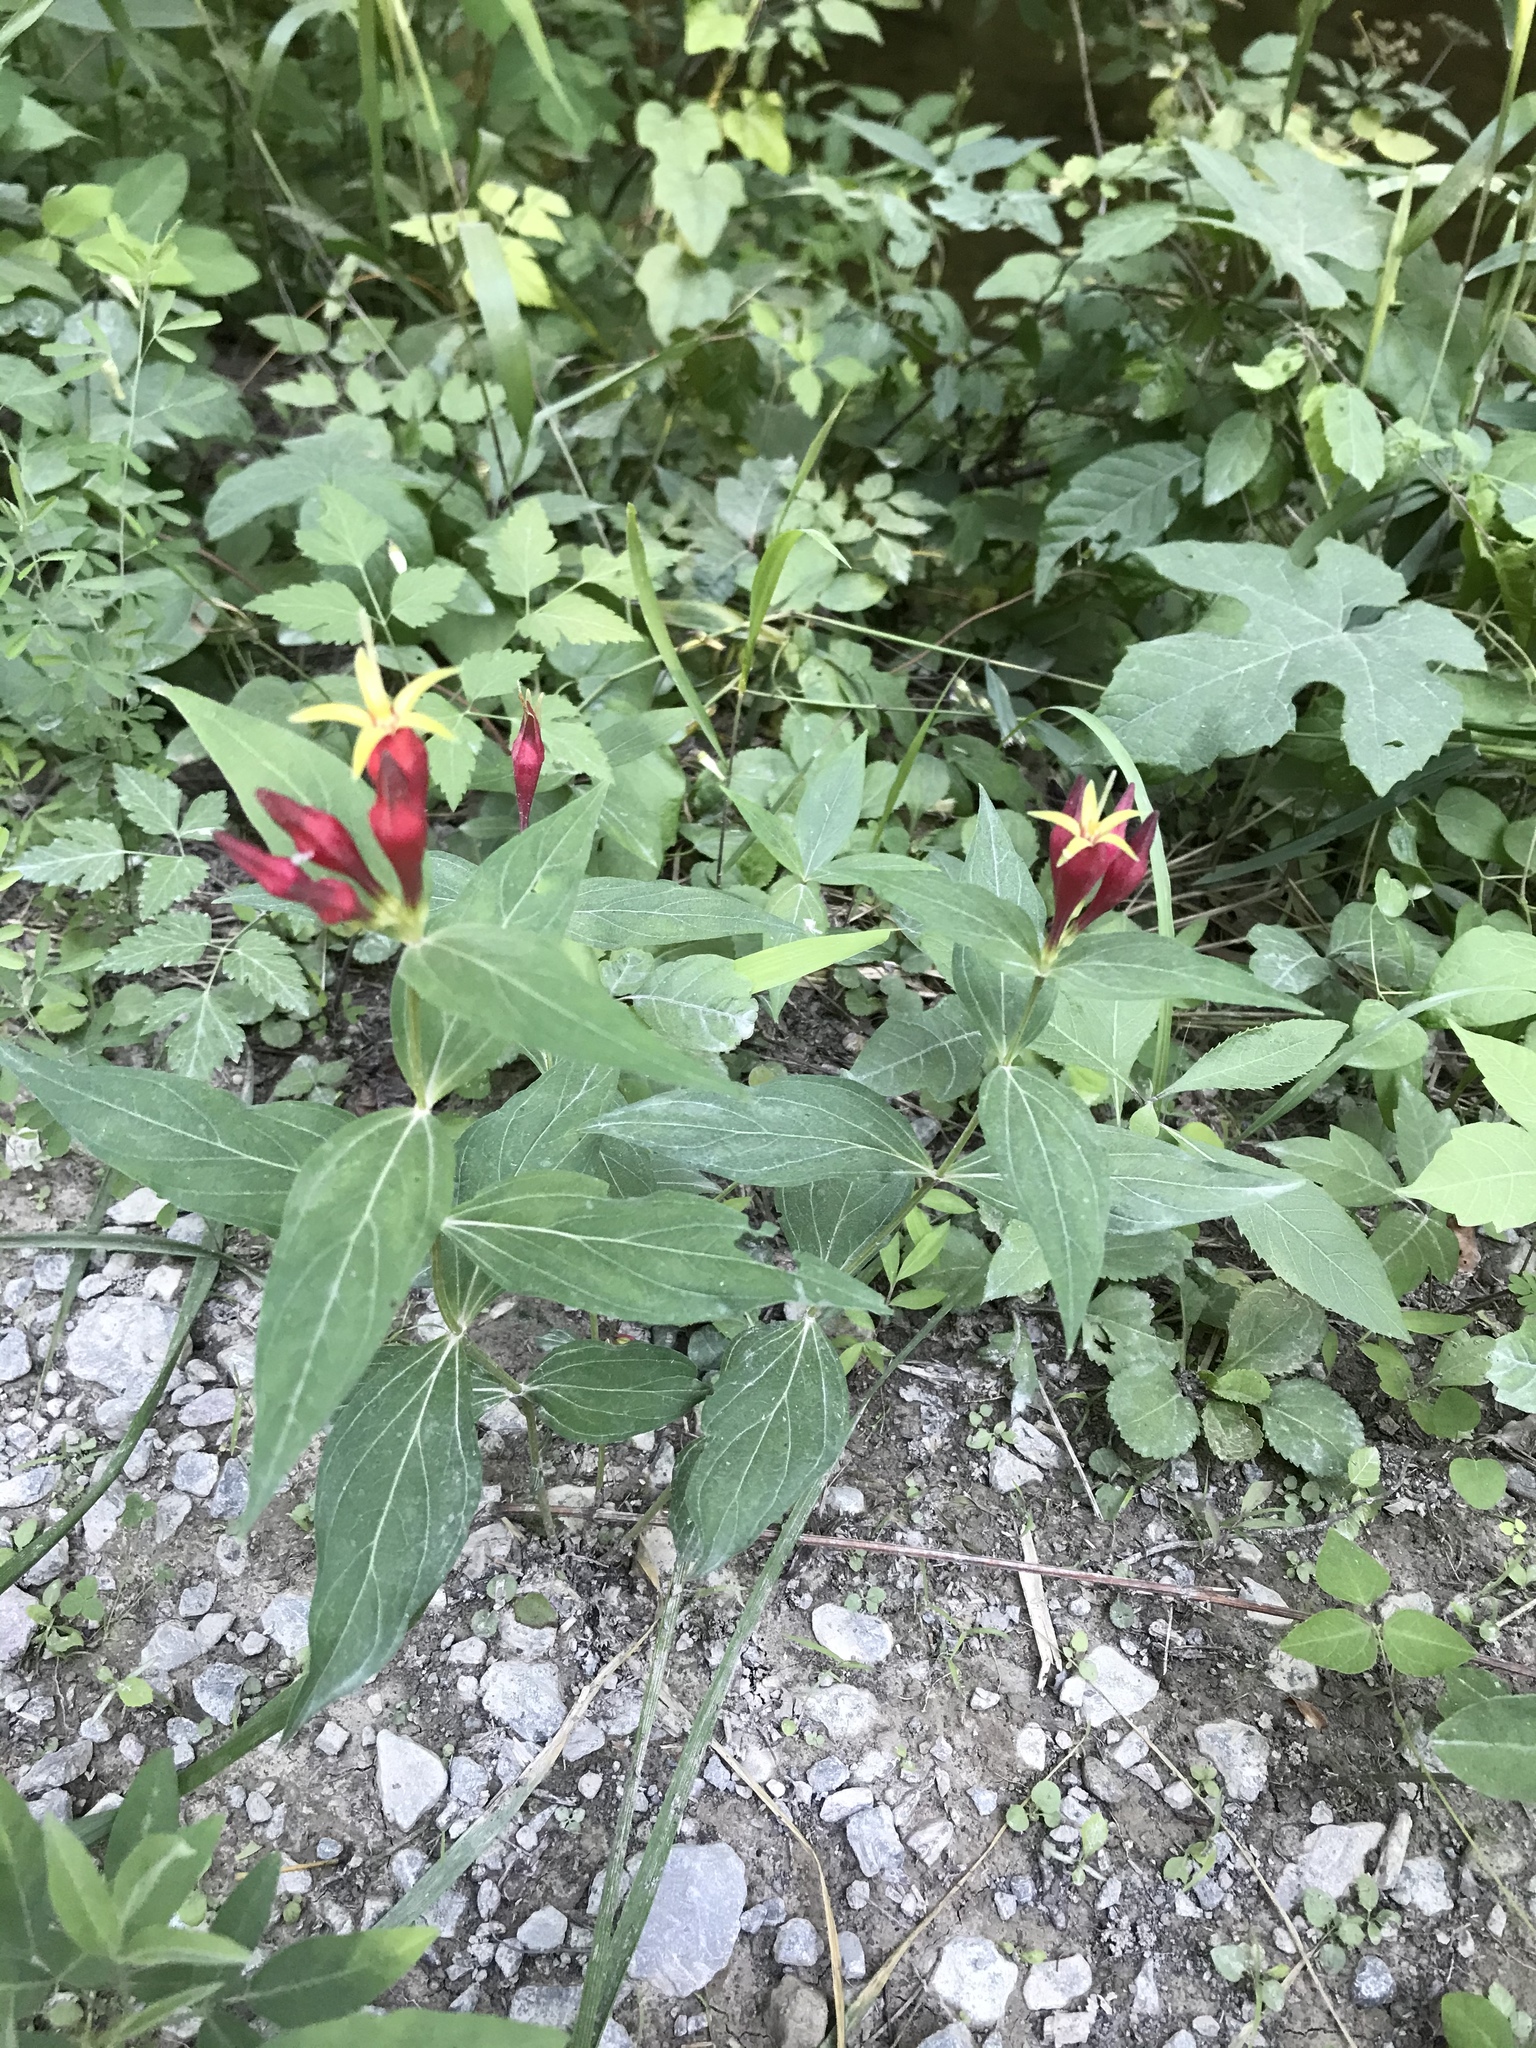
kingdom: Plantae
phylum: Tracheophyta
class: Magnoliopsida
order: Gentianales
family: Loganiaceae
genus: Spigelia
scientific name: Spigelia marilandica
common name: Indian-pink
